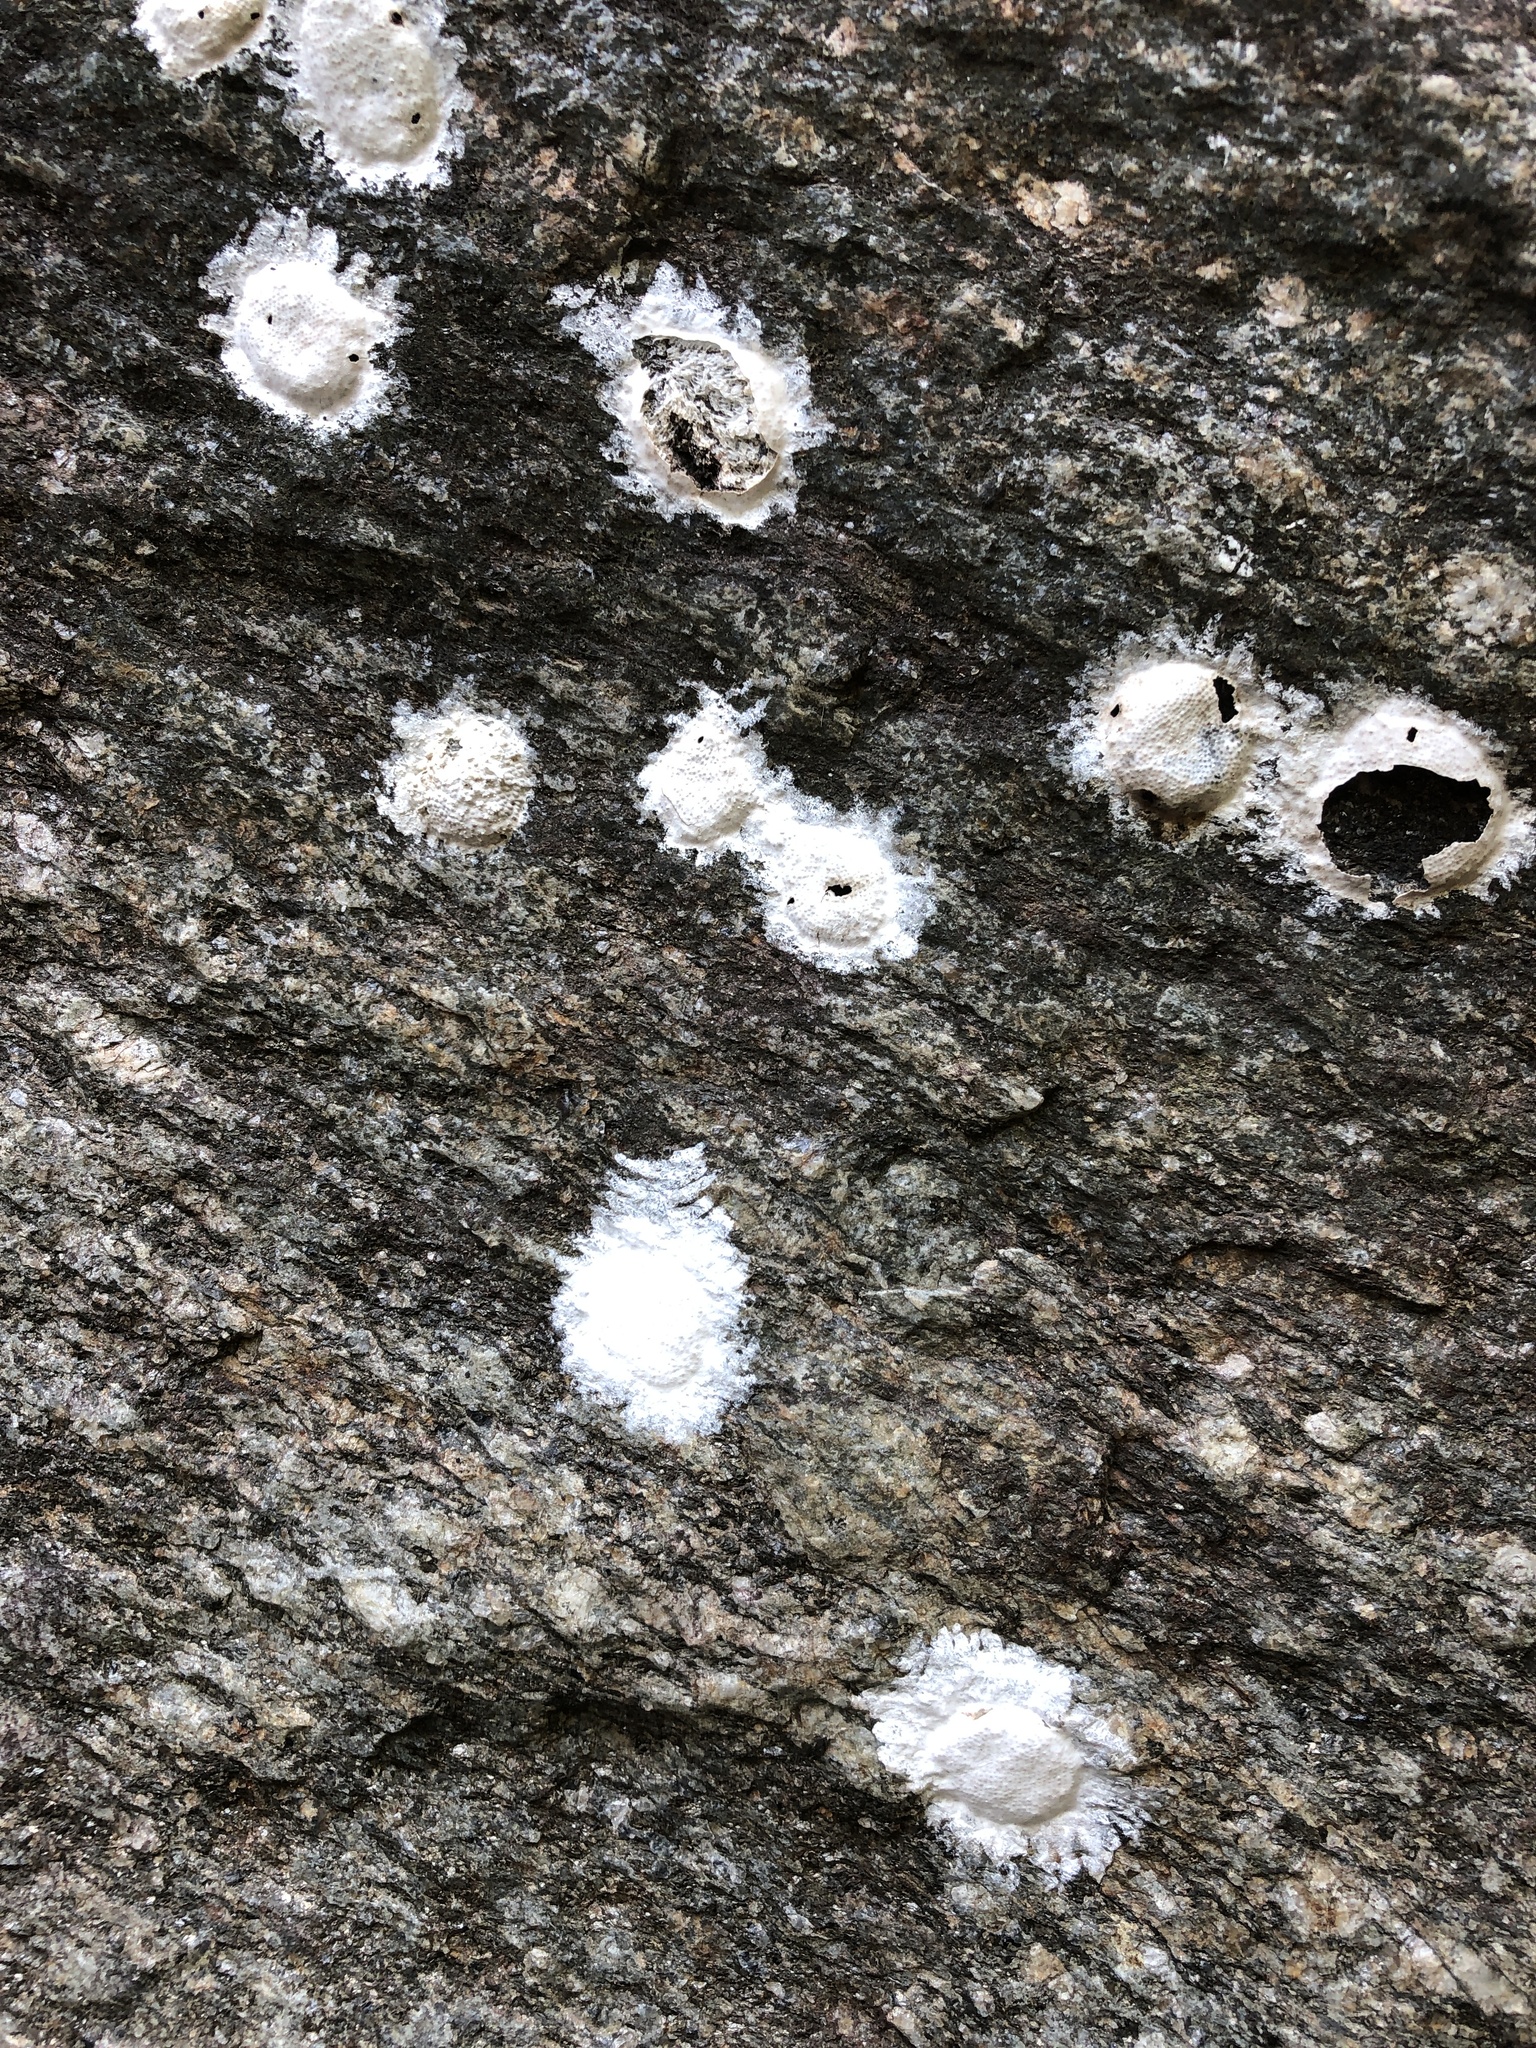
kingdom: Animalia
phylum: Arthropoda
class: Insecta
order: Megaloptera
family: Corydalidae
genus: Corydalus
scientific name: Corydalus cornutus
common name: Dobsonfly
